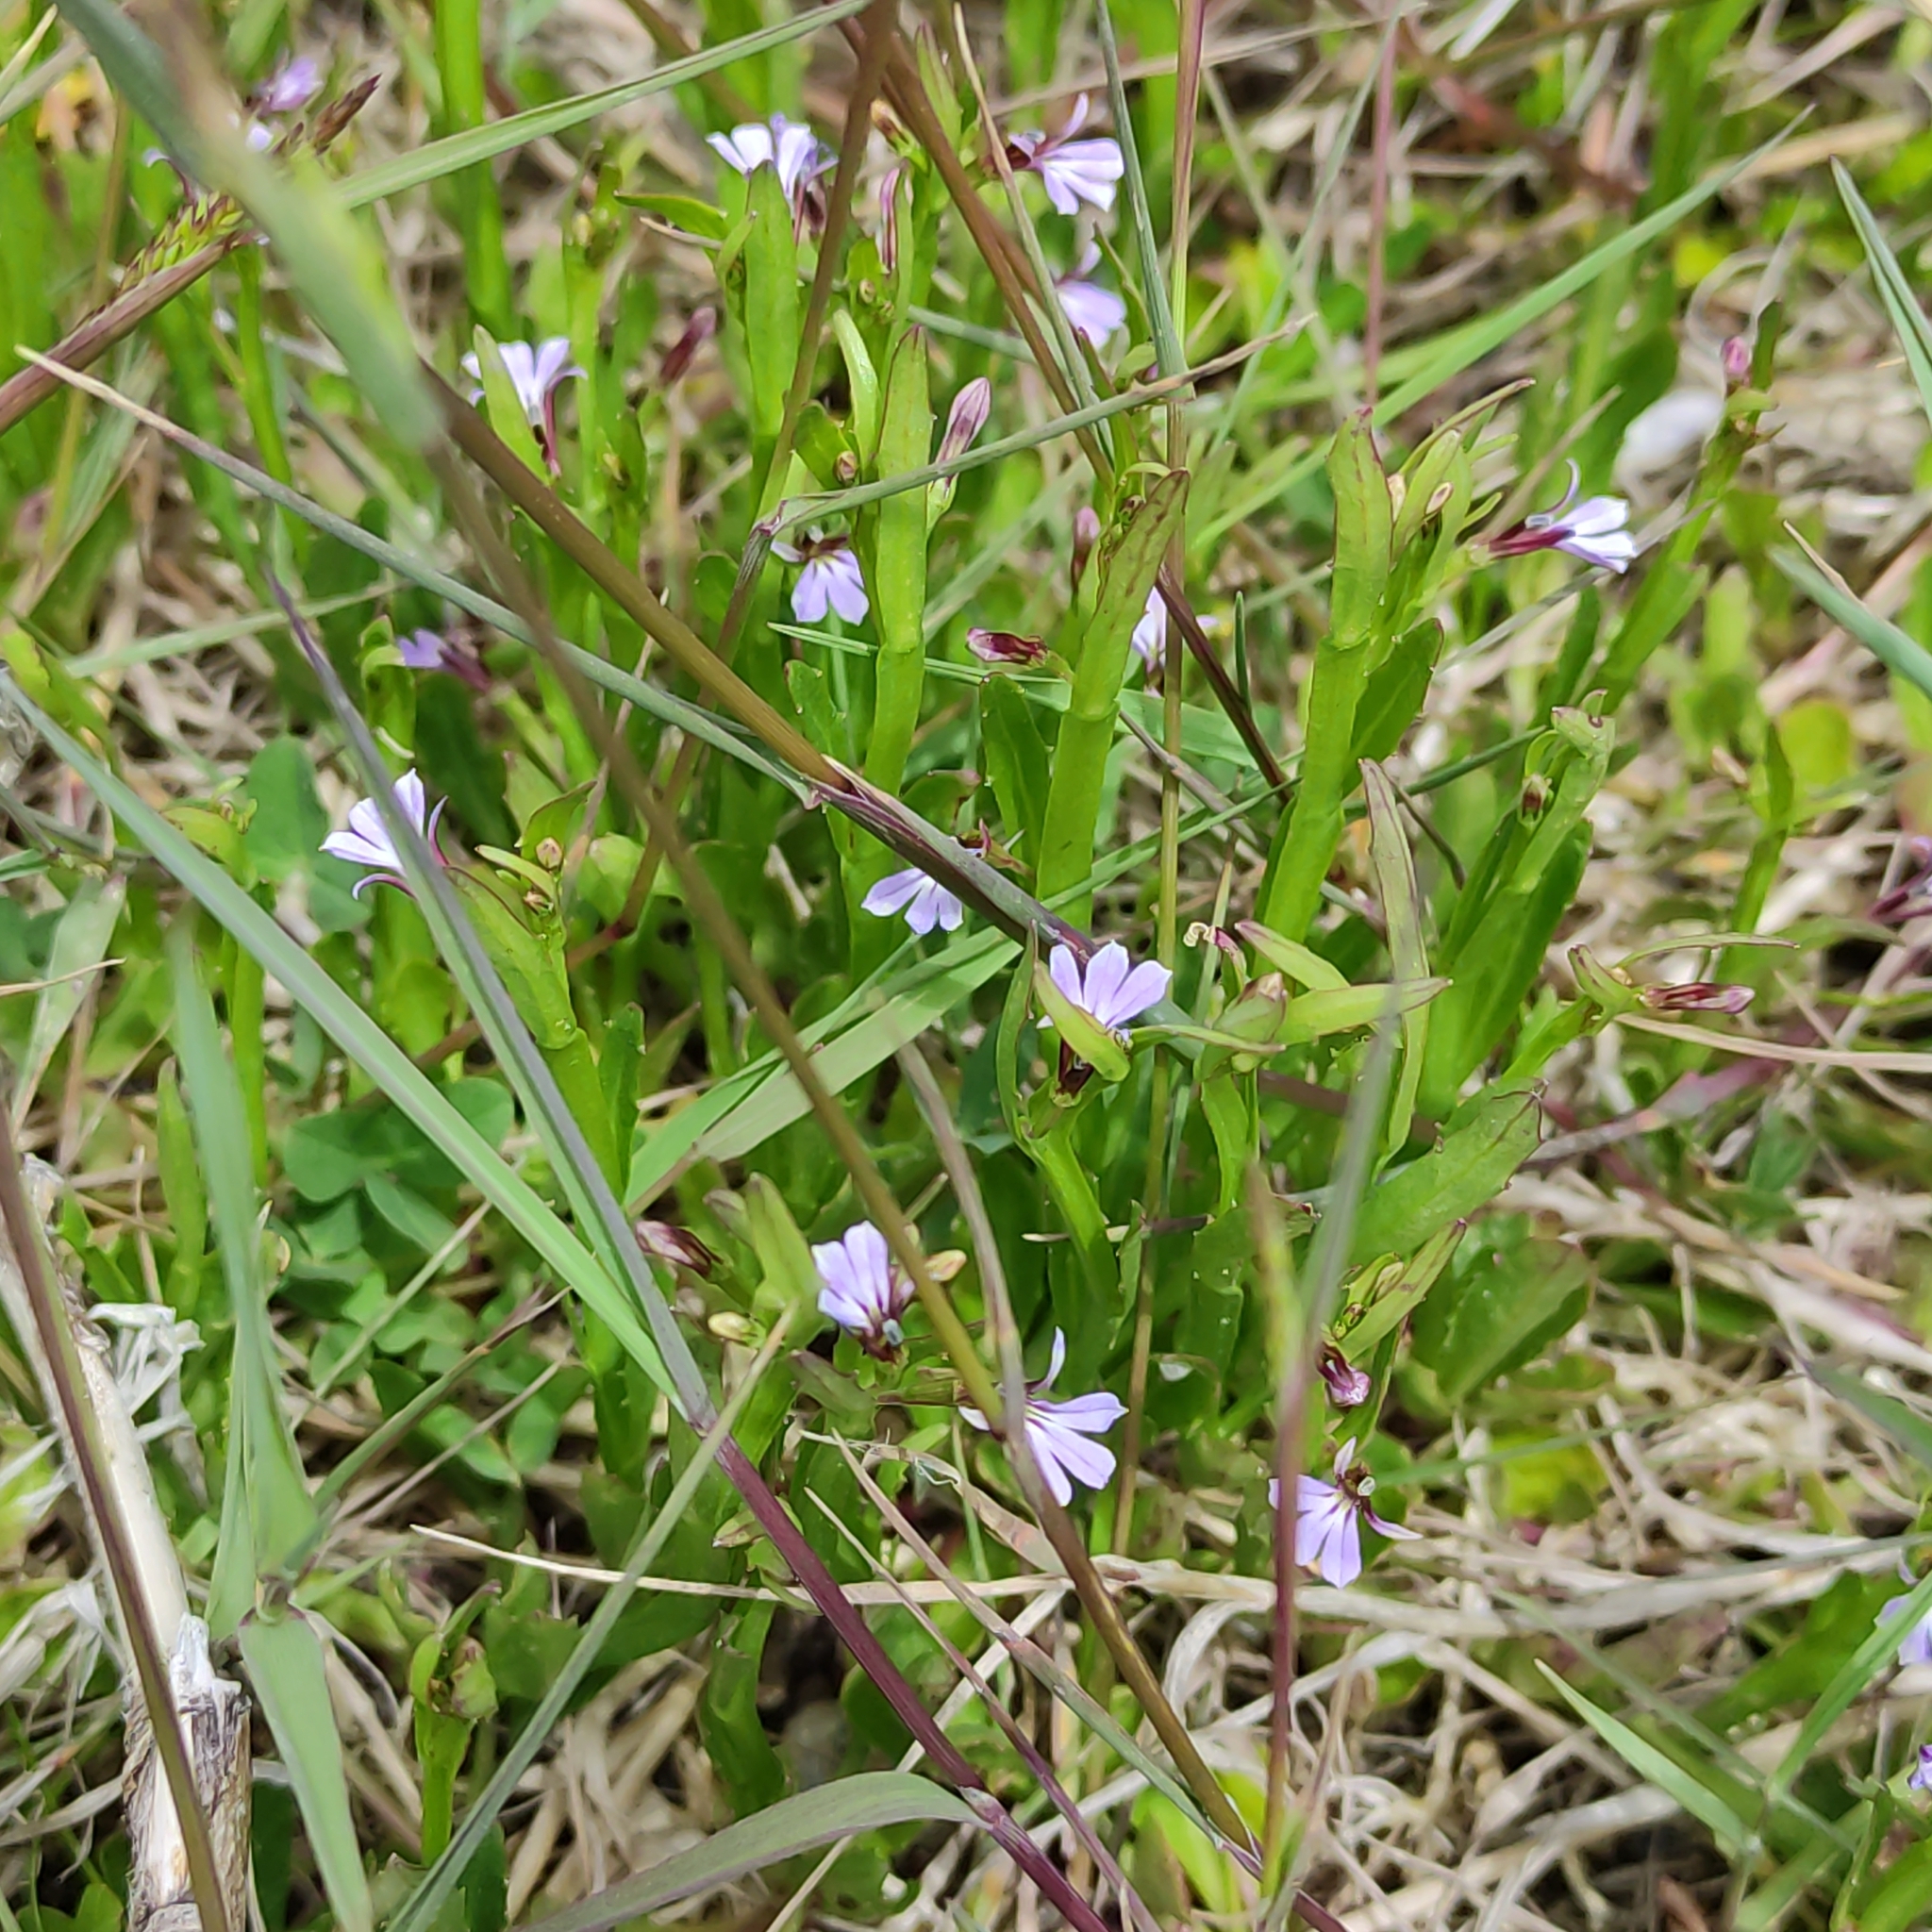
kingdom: Plantae
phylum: Tracheophyta
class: Magnoliopsida
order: Asterales
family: Campanulaceae
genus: Lobelia
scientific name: Lobelia anceps
